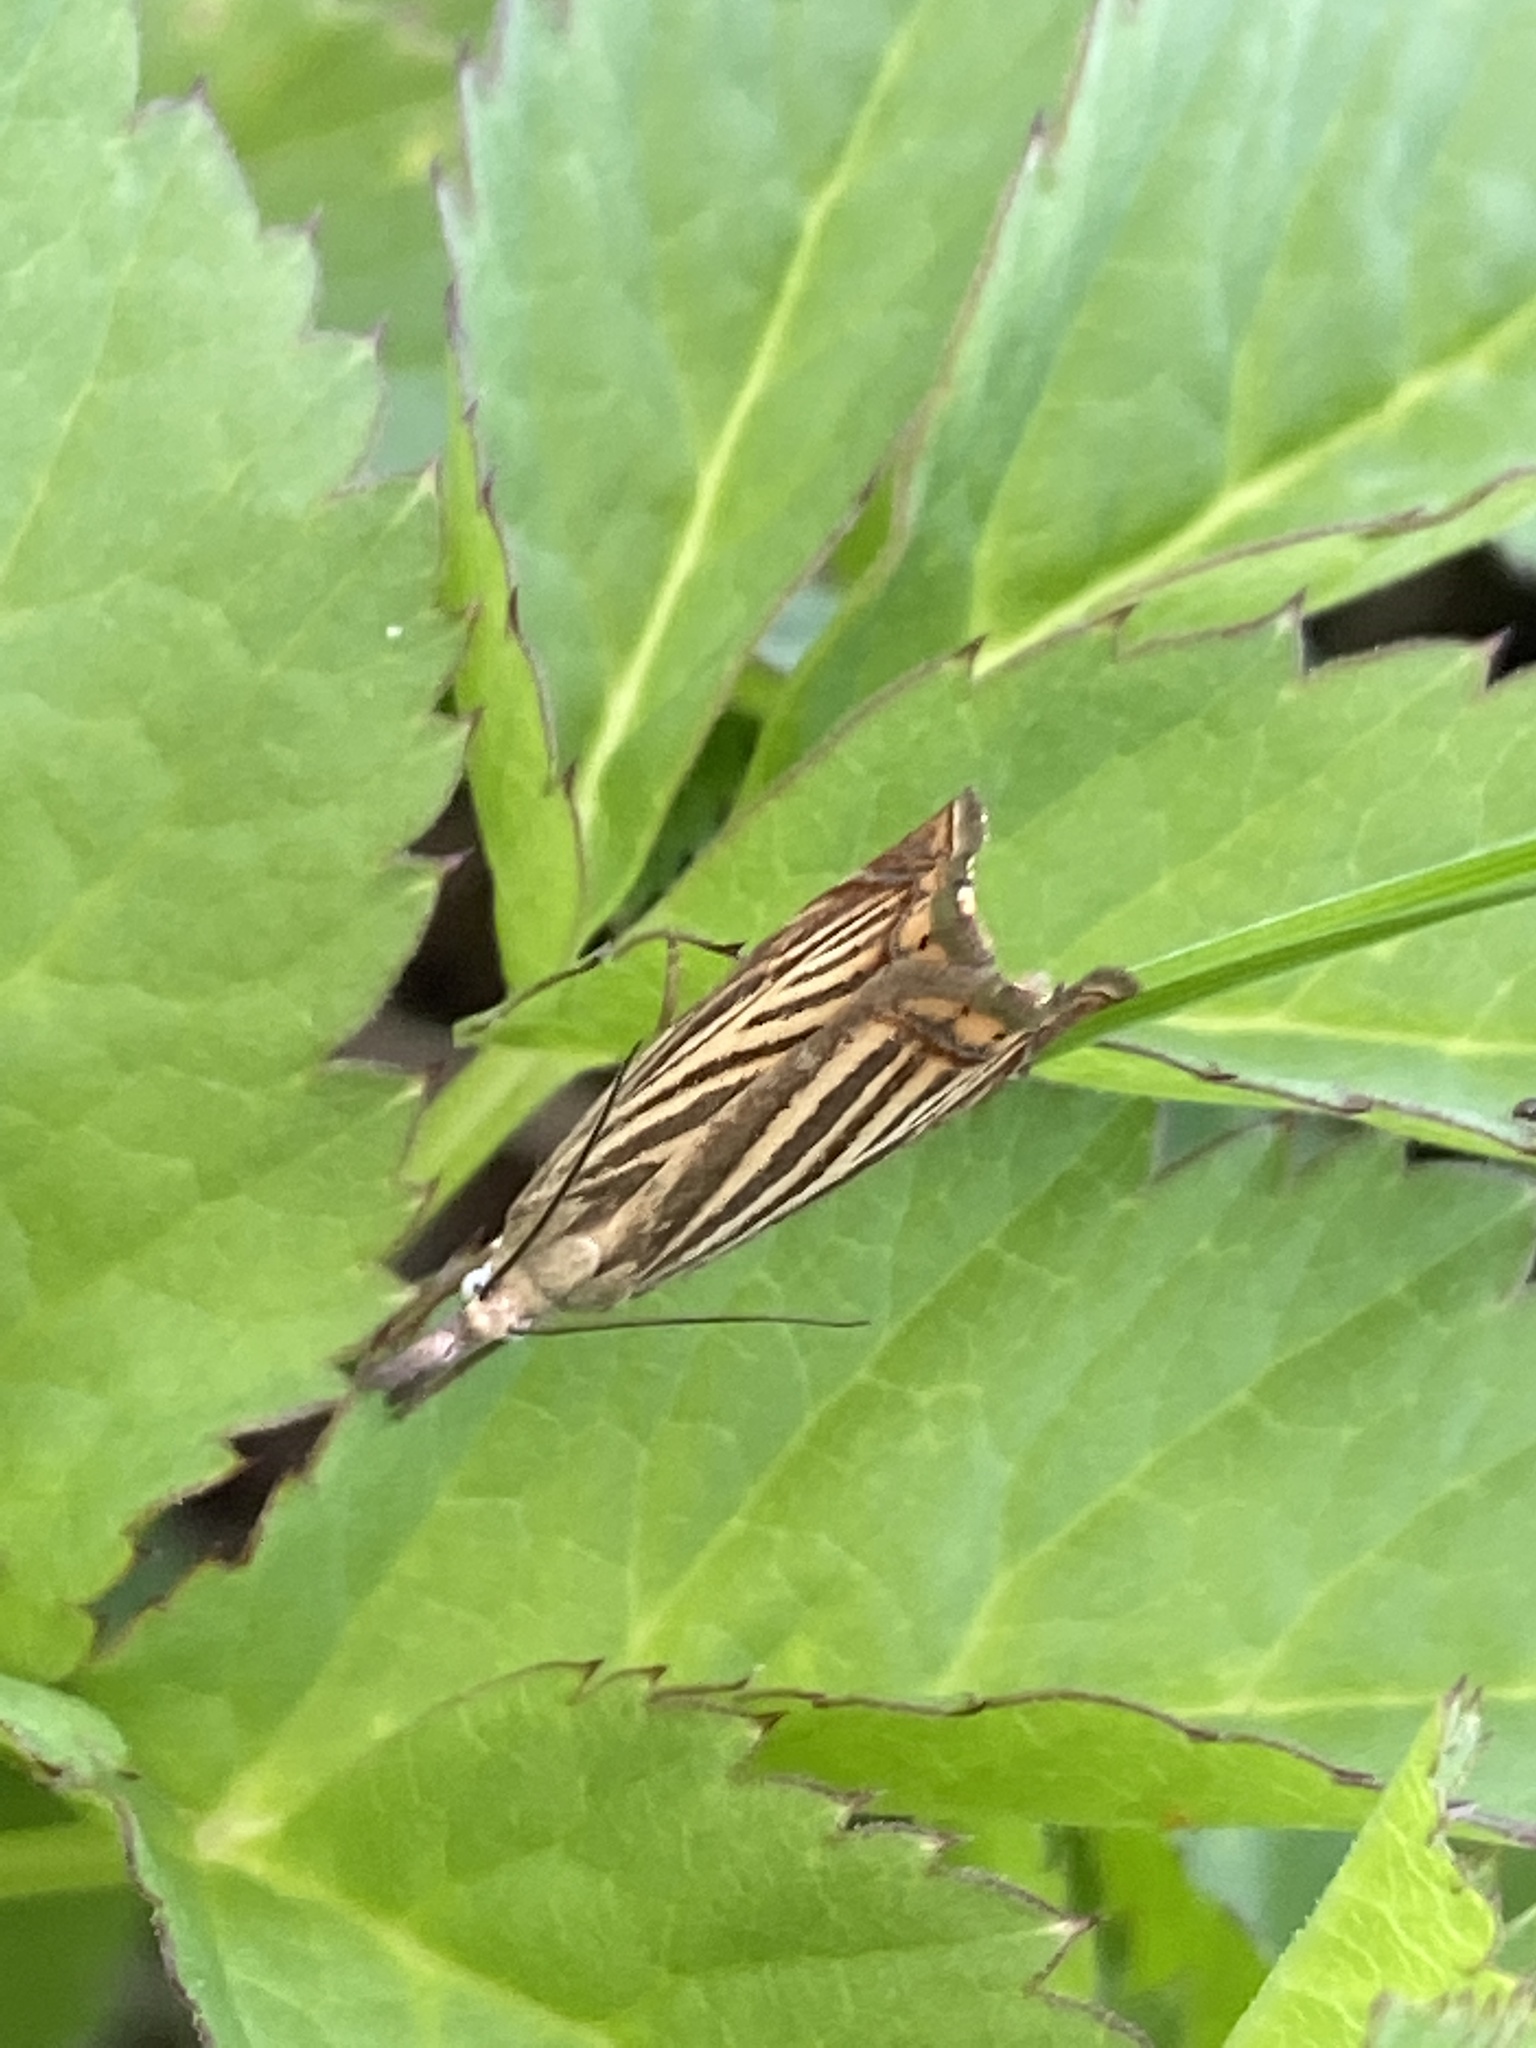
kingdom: Animalia
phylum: Arthropoda
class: Insecta
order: Lepidoptera
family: Crambidae
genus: Chrysoteuchia
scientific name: Chrysoteuchia culmella
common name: Garden grass-veneer
